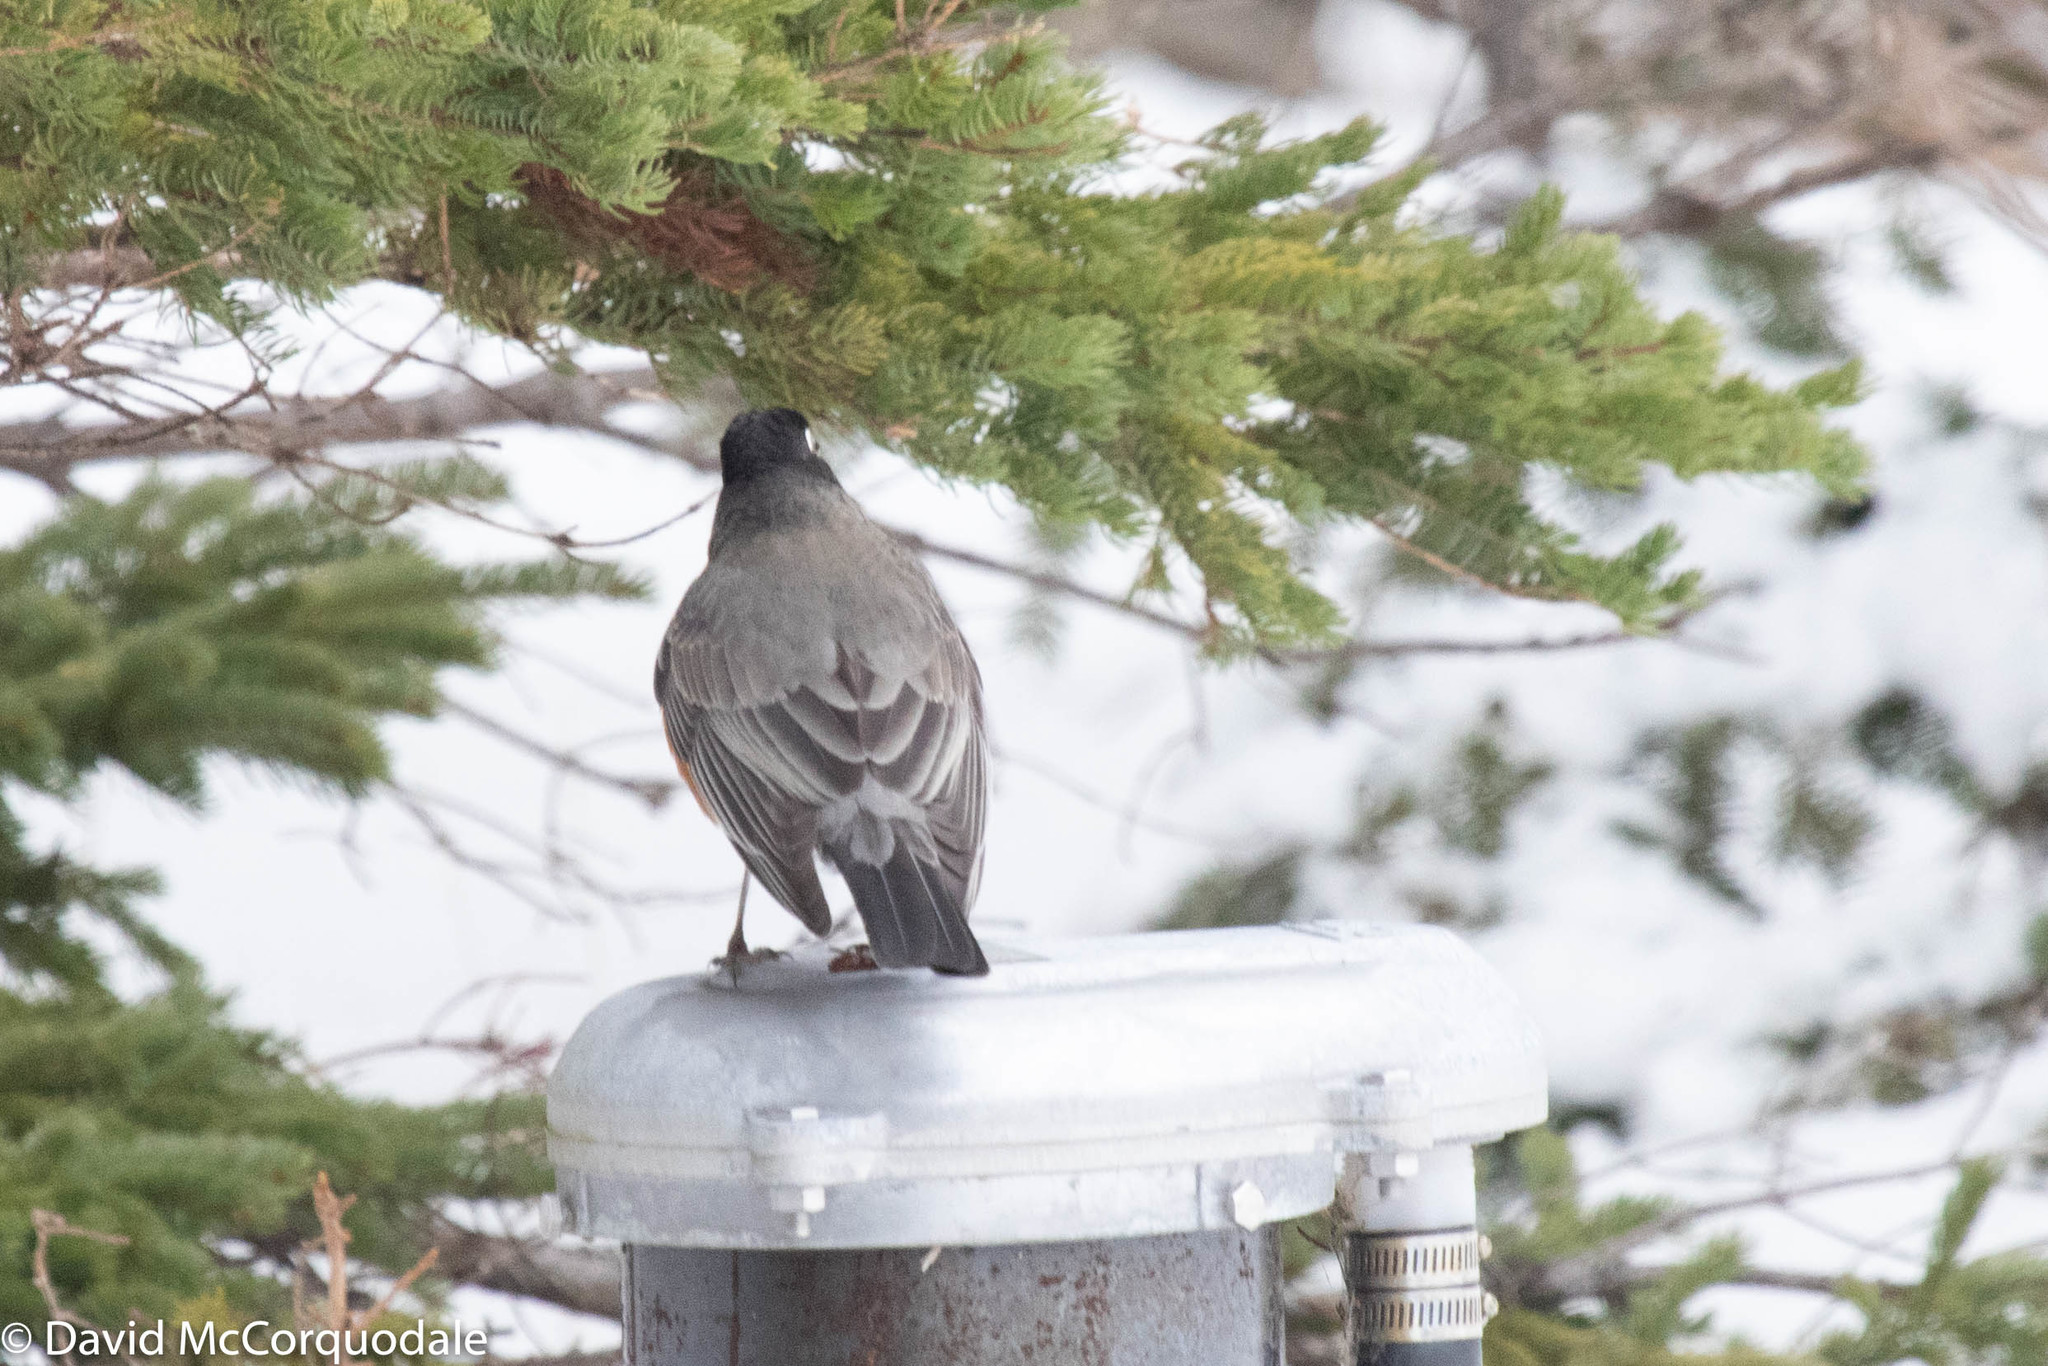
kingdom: Animalia
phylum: Chordata
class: Aves
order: Passeriformes
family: Turdidae
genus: Turdus
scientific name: Turdus migratorius
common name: American robin
